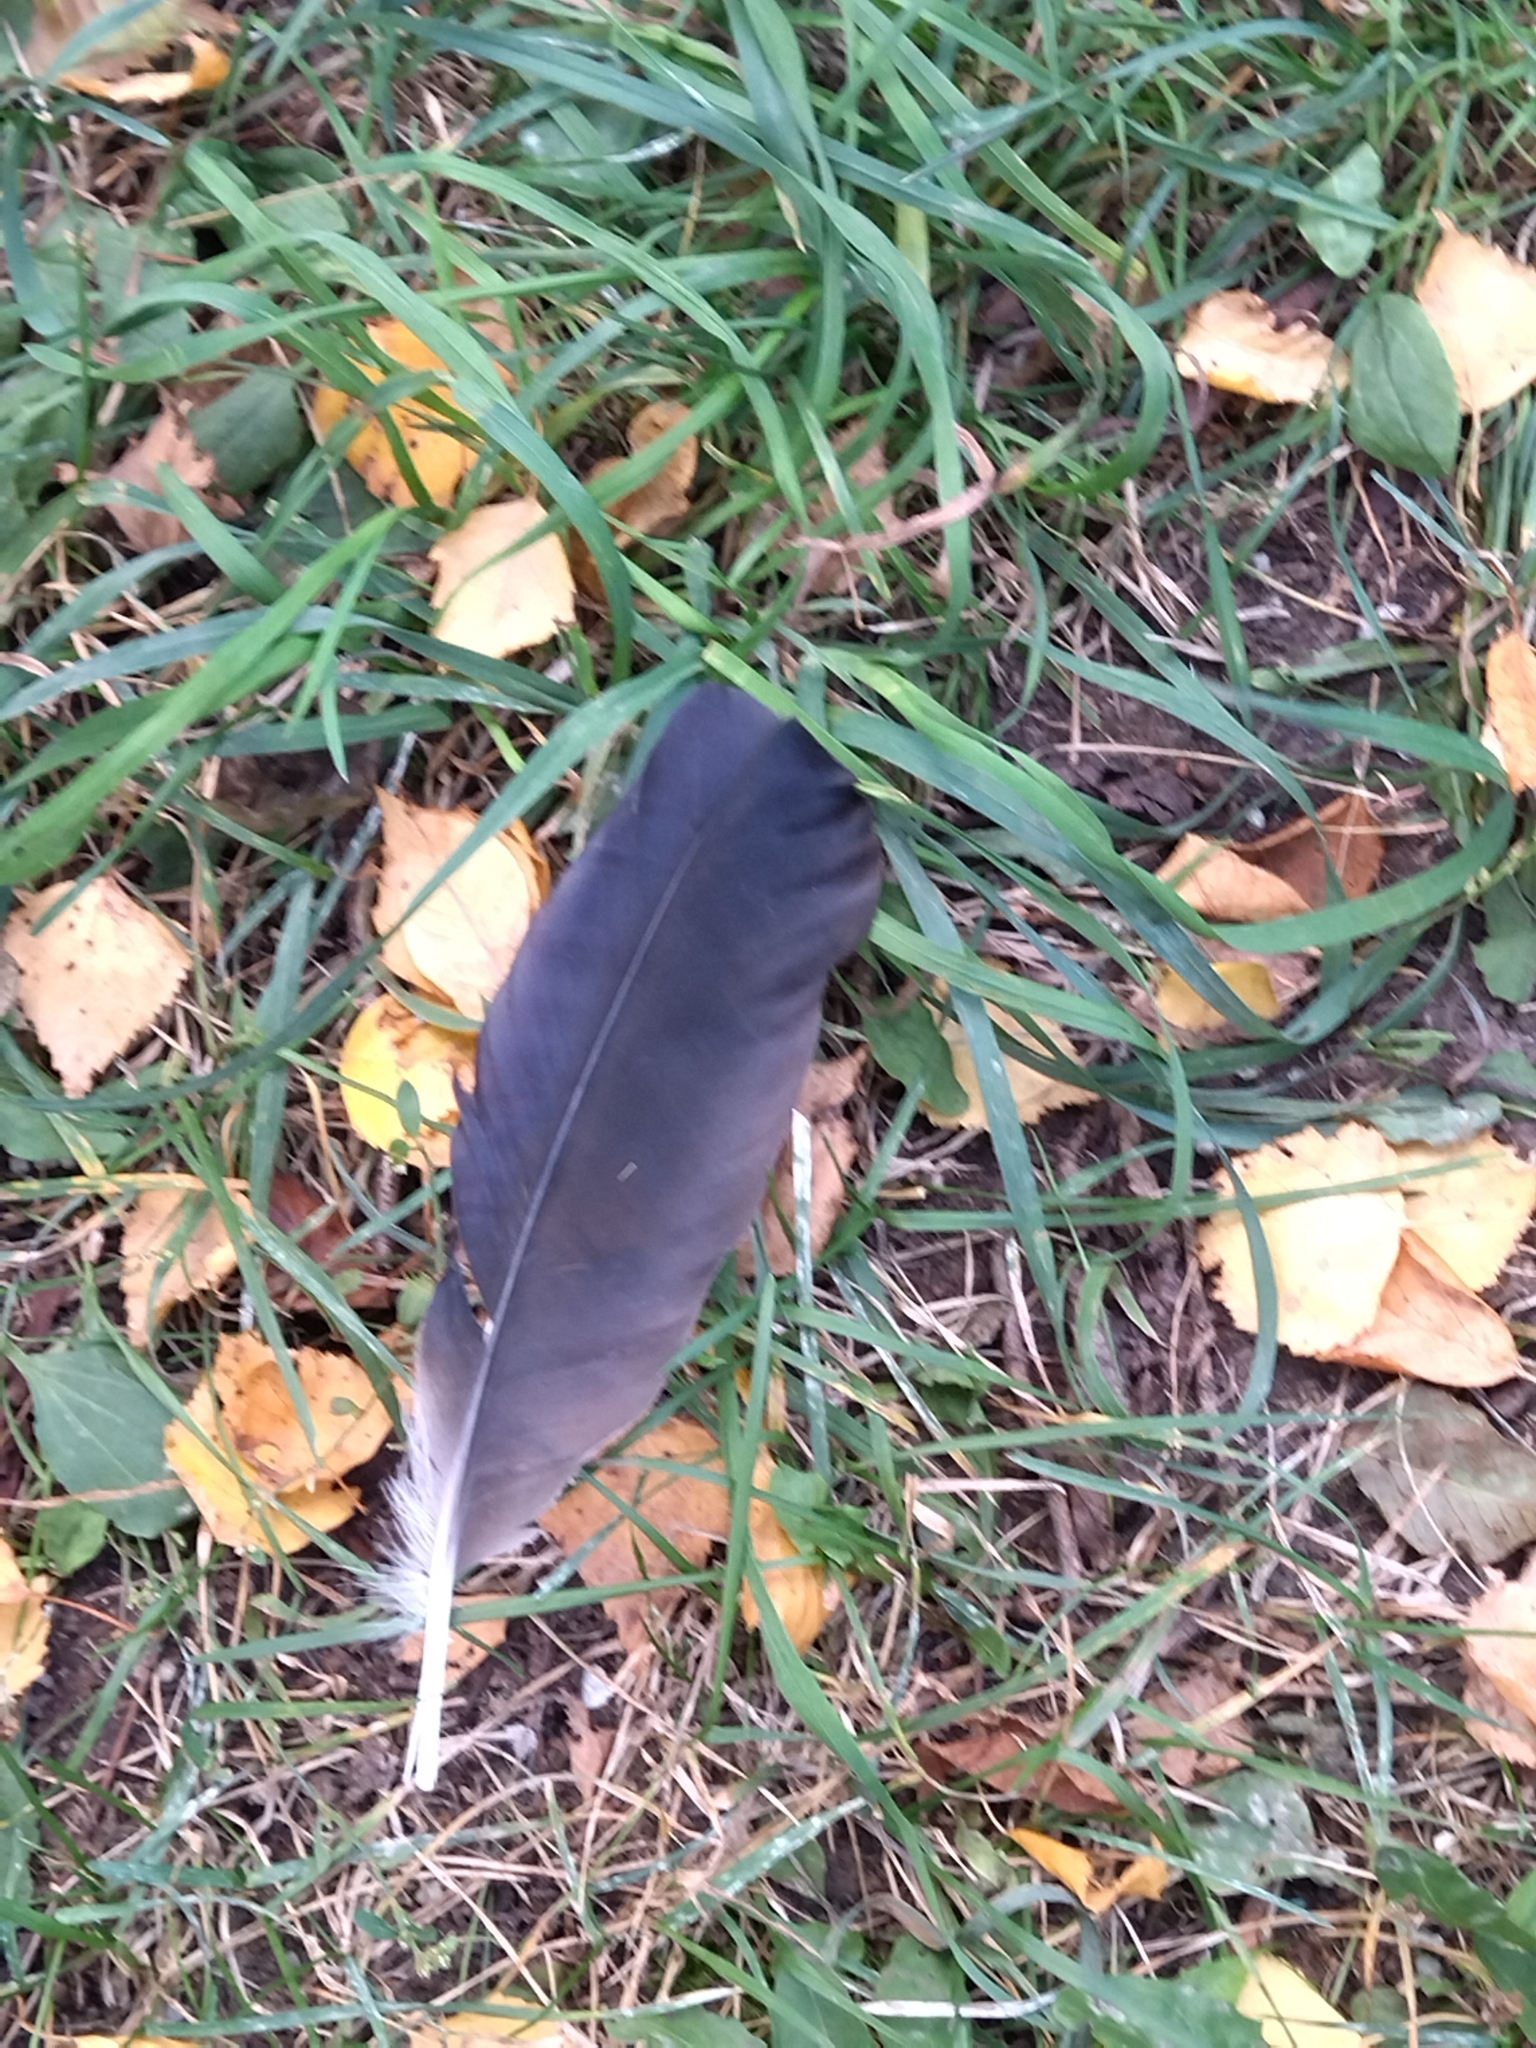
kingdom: Animalia
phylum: Chordata
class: Aves
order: Passeriformes
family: Corvidae
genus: Corvus
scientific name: Corvus cornix
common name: Hooded crow
